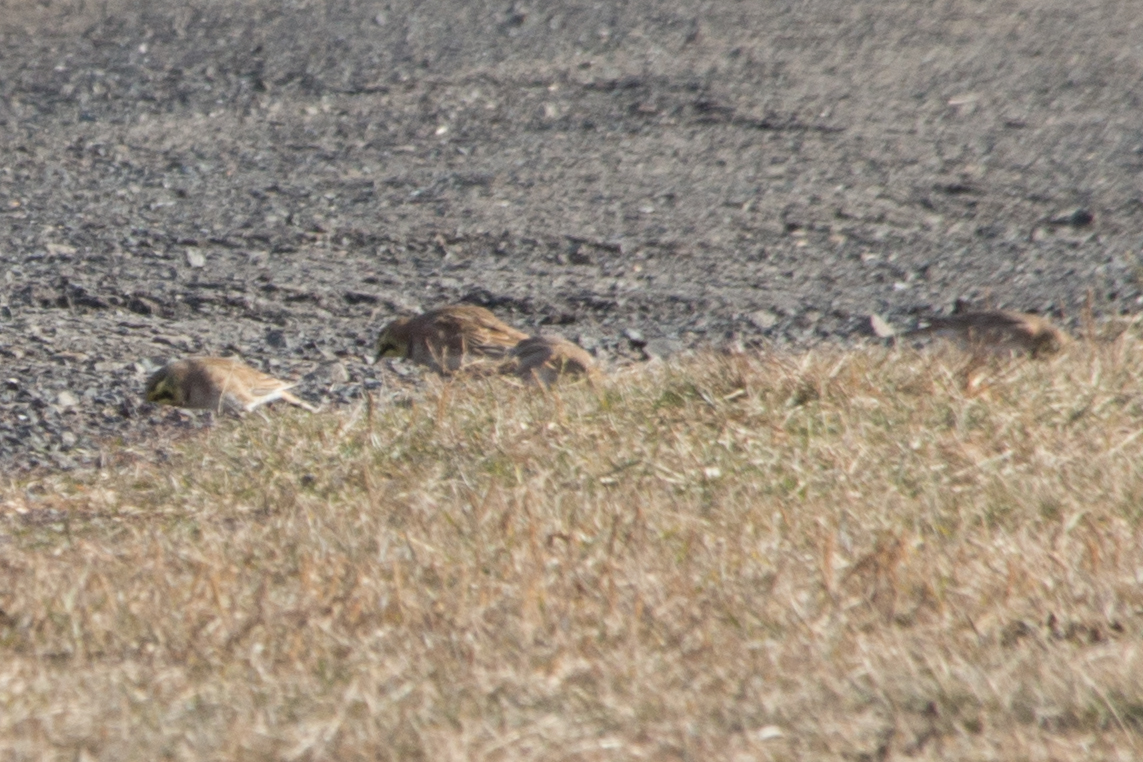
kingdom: Animalia
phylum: Chordata
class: Aves
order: Passeriformes
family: Alaudidae
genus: Eremophila
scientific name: Eremophila alpestris
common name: Horned lark
